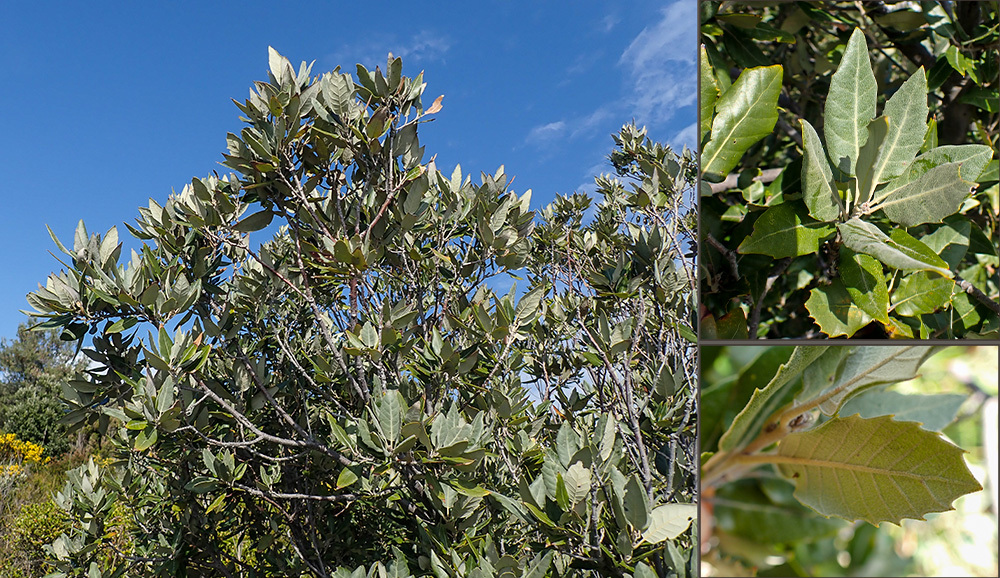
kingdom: Plantae
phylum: Tracheophyta
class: Magnoliopsida
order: Fagales
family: Fagaceae
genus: Quercus
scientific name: Quercus ilex
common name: Evergreen oak
